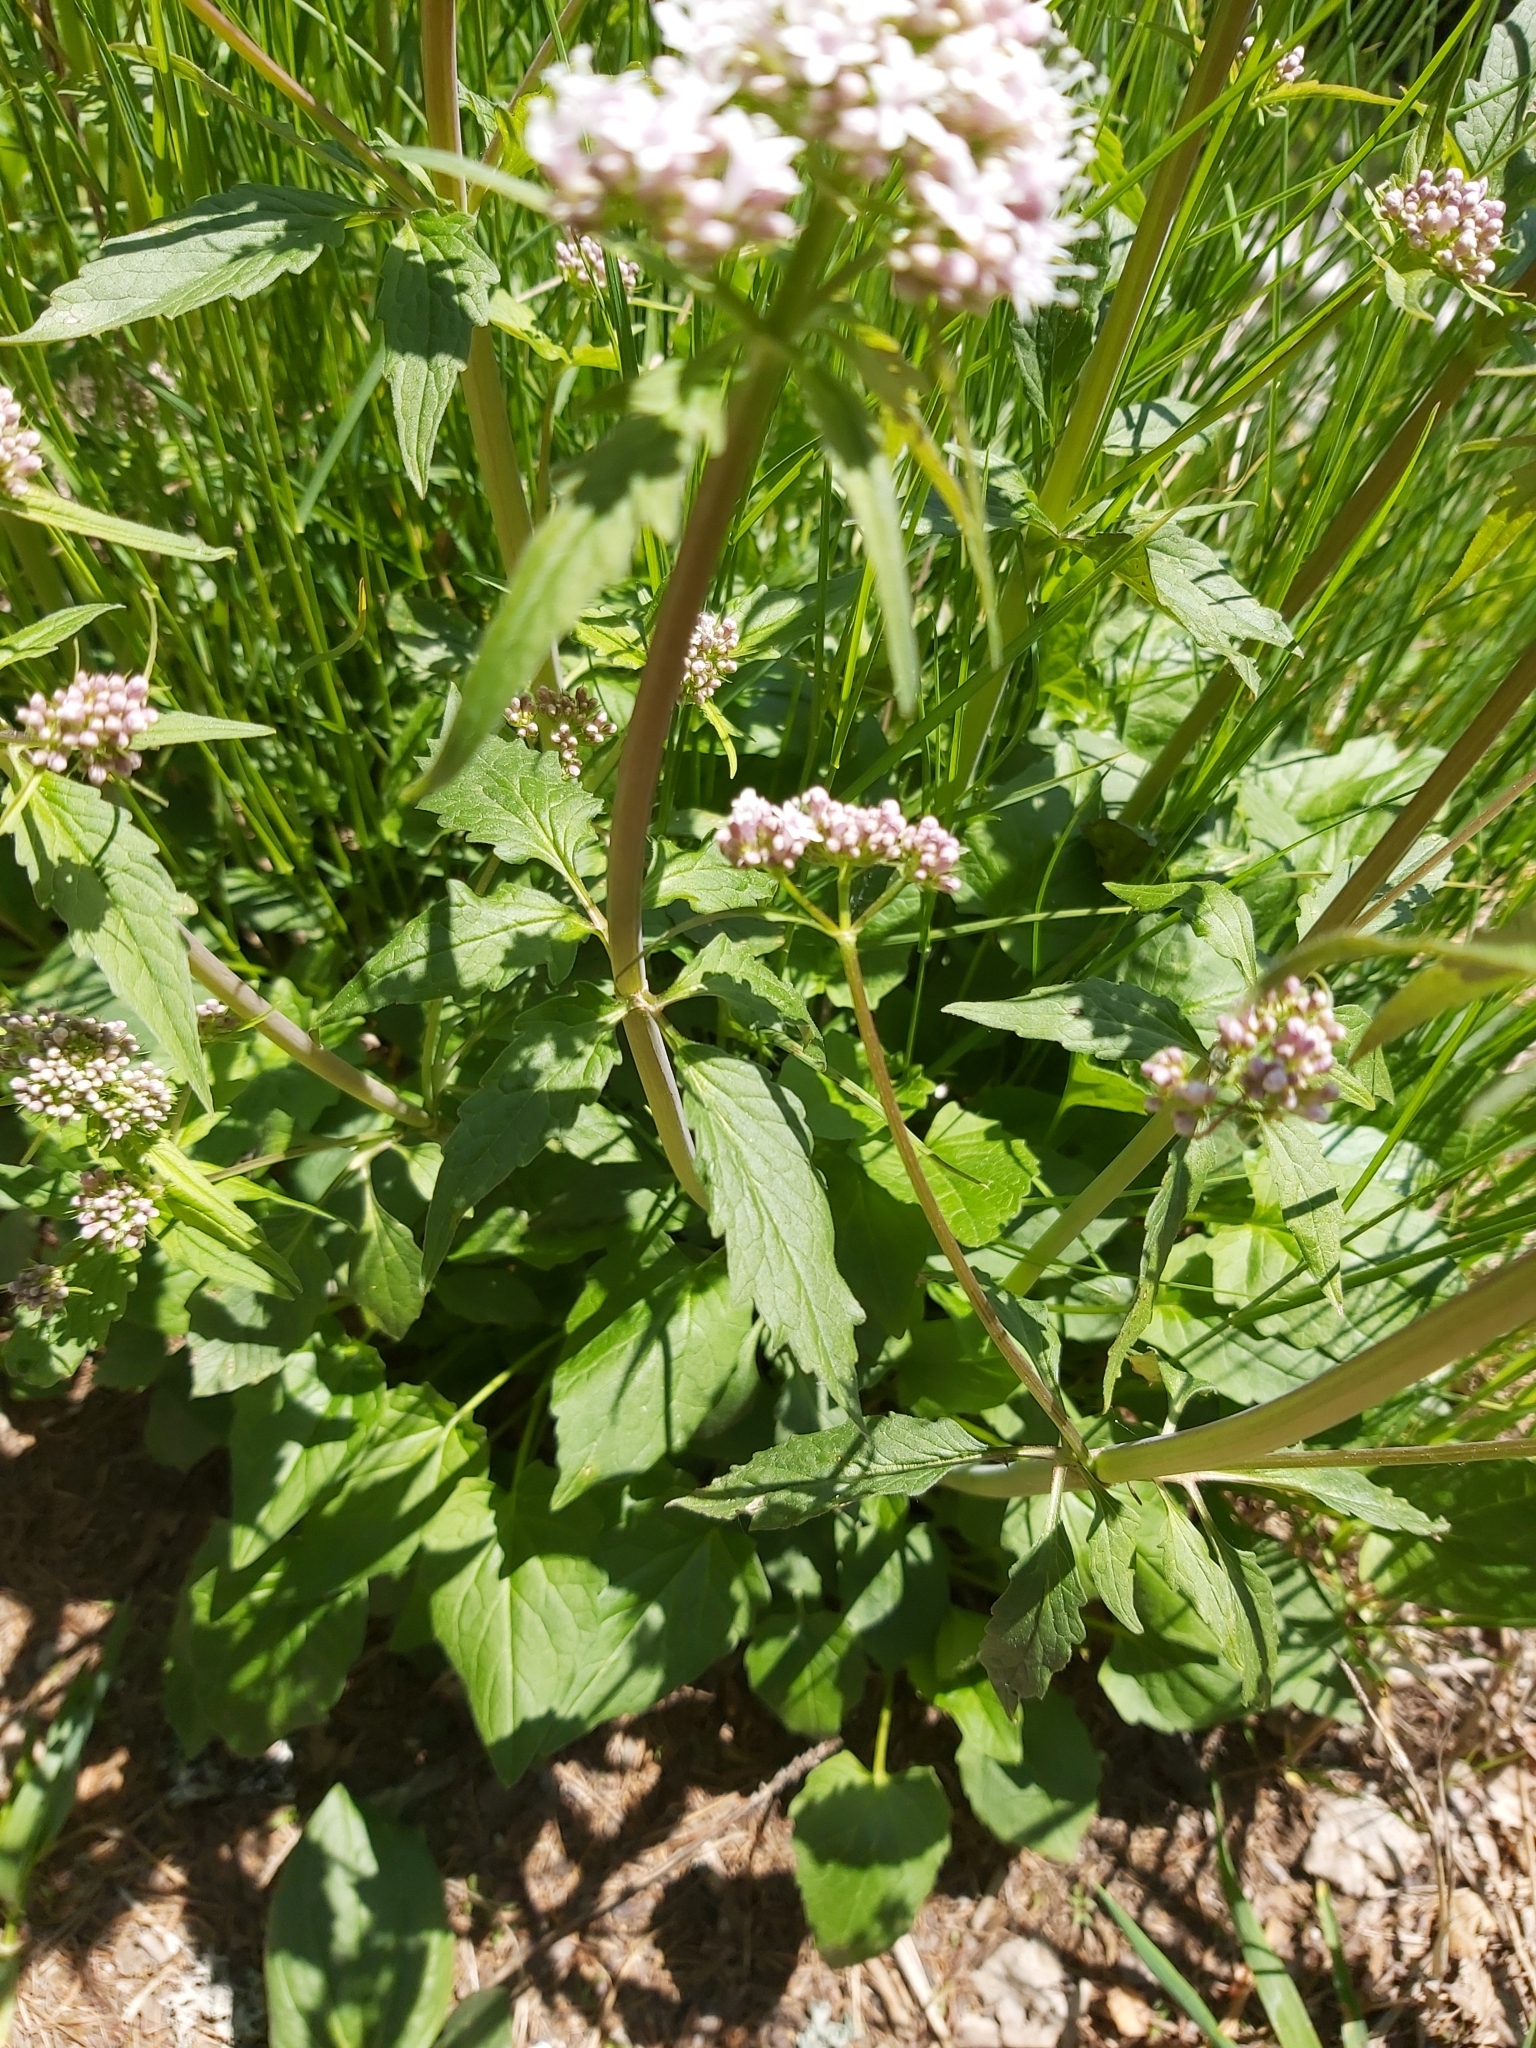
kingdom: Plantae
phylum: Tracheophyta
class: Magnoliopsida
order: Dipsacales
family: Caprifoliaceae
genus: Valeriana
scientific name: Valeriana tripteris
